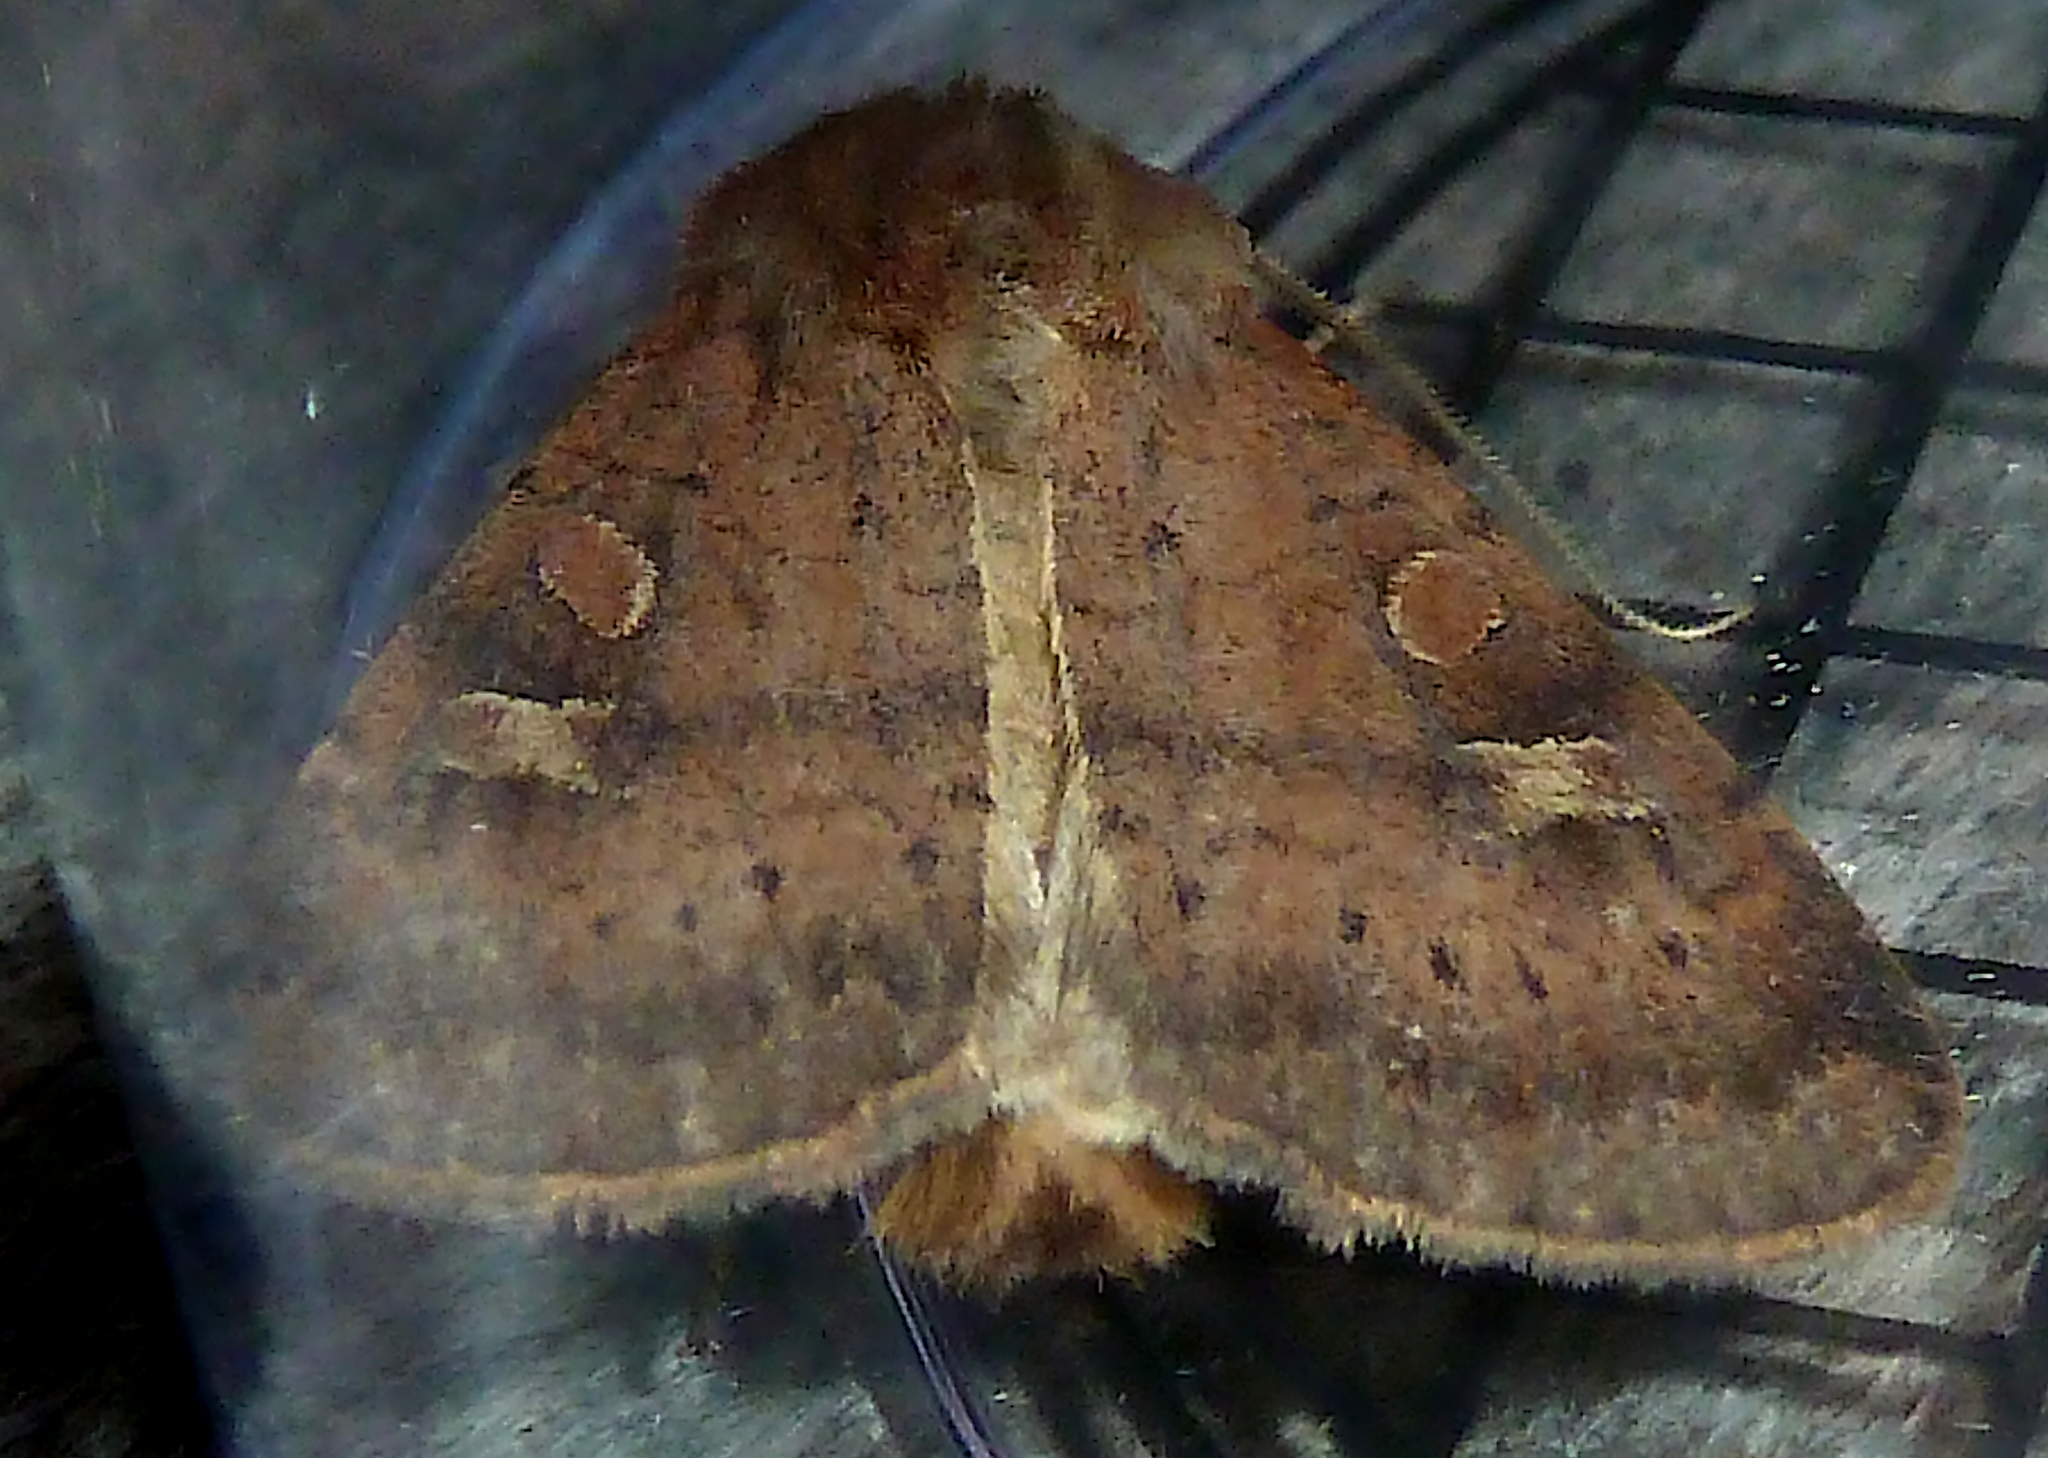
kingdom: Animalia
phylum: Arthropoda
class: Insecta
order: Lepidoptera
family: Noctuidae
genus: Xestia
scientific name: Xestia xanthographa
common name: Square-spot rustic
